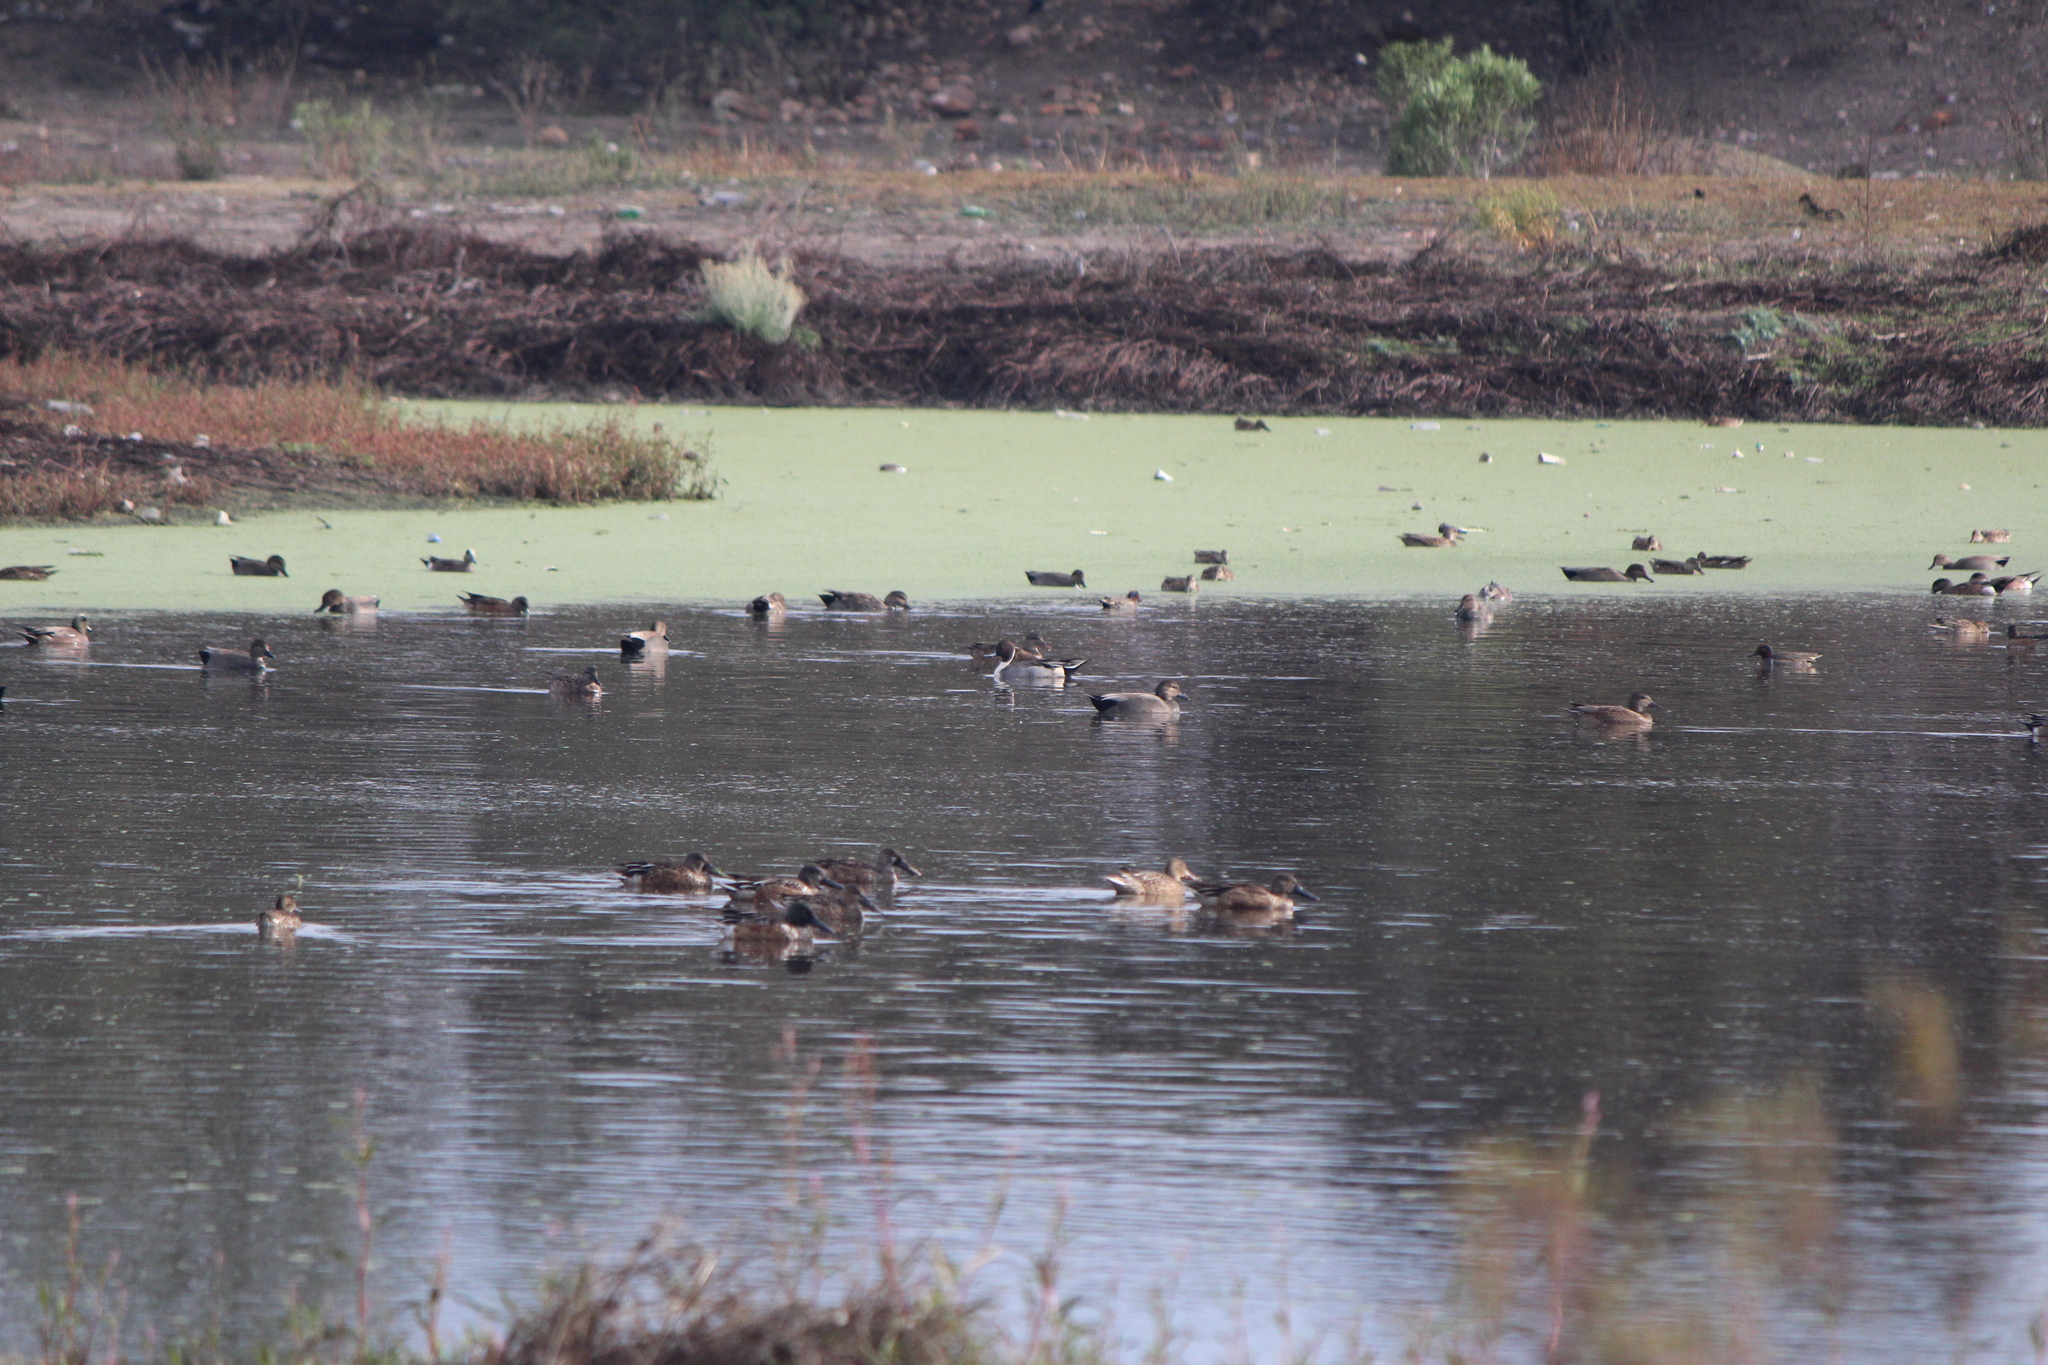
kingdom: Animalia
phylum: Chordata
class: Aves
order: Anseriformes
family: Anatidae
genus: Anas
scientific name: Anas acuta
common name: Northern pintail
